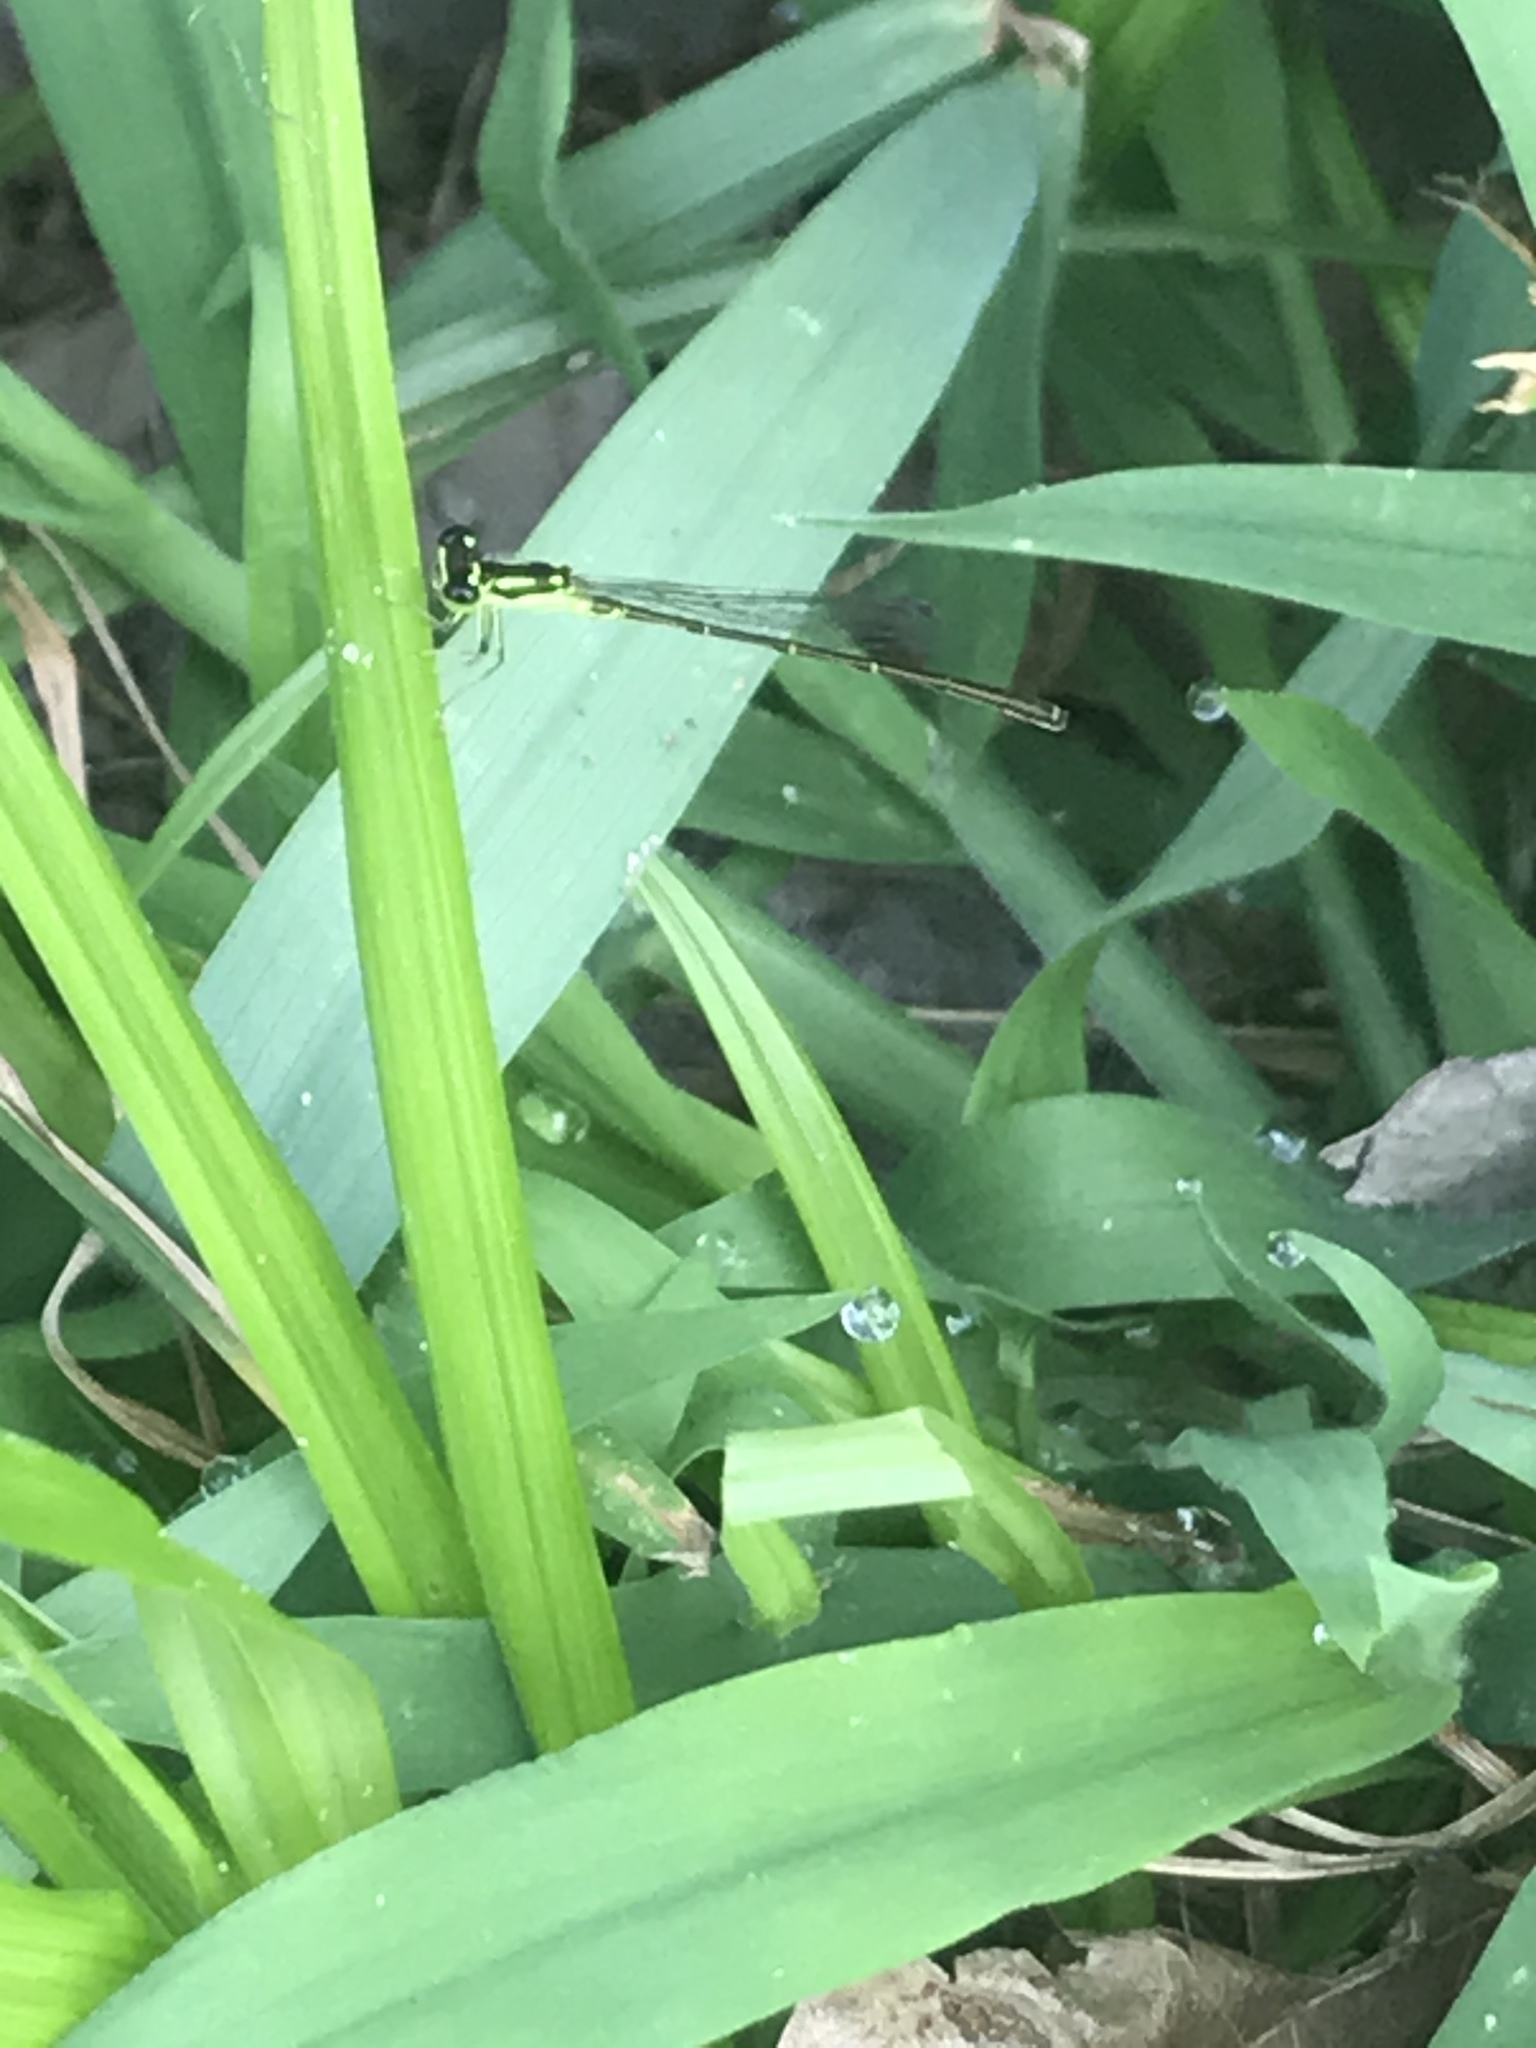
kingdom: Animalia
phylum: Arthropoda
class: Insecta
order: Odonata
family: Coenagrionidae
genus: Ischnura
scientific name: Ischnura posita
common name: Fragile forktail
